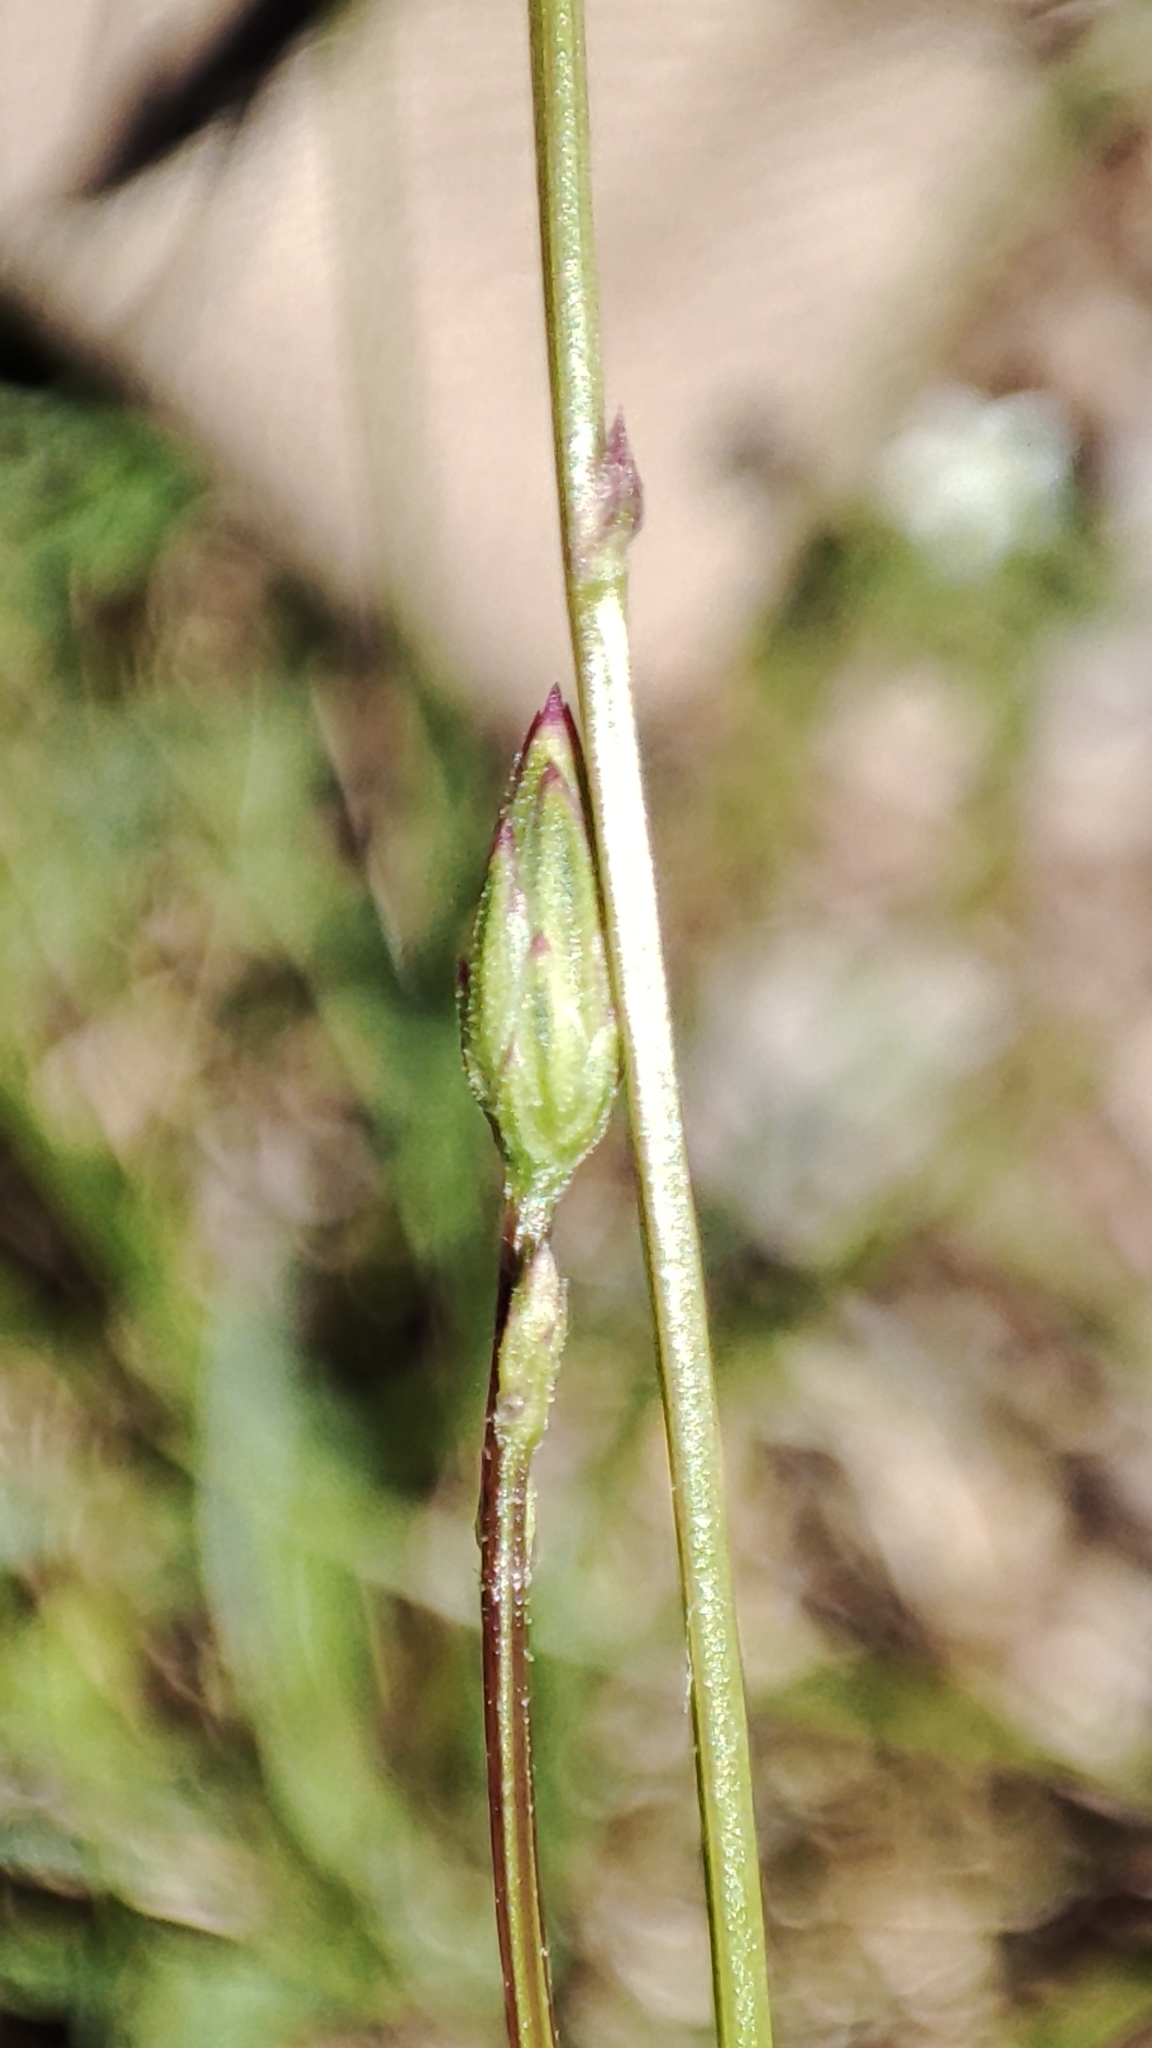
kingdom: Plantae
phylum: Tracheophyta
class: Magnoliopsida
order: Asterales
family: Asteraceae
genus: Crupina
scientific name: Crupina vulgaris
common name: Common crupina
